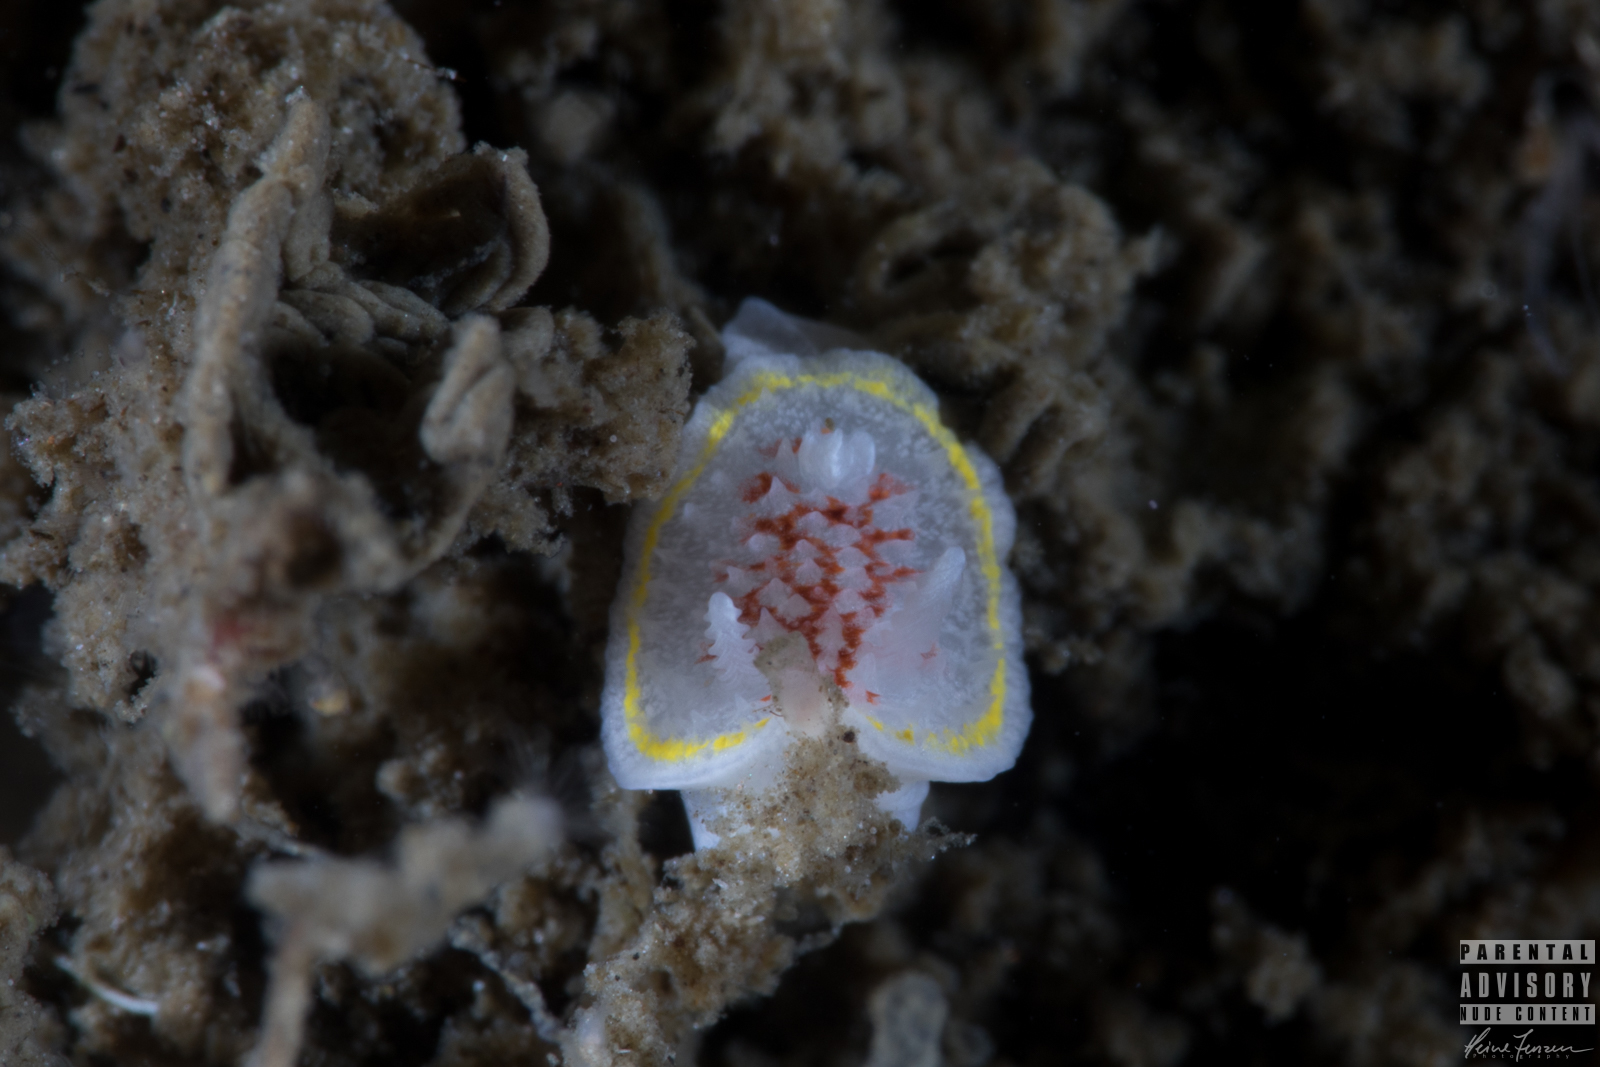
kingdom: Animalia
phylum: Mollusca
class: Gastropoda
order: Nudibranchia
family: Calycidorididae
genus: Diaphorodoris
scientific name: Diaphorodoris luteocincta
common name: Fried egg nudibranch
